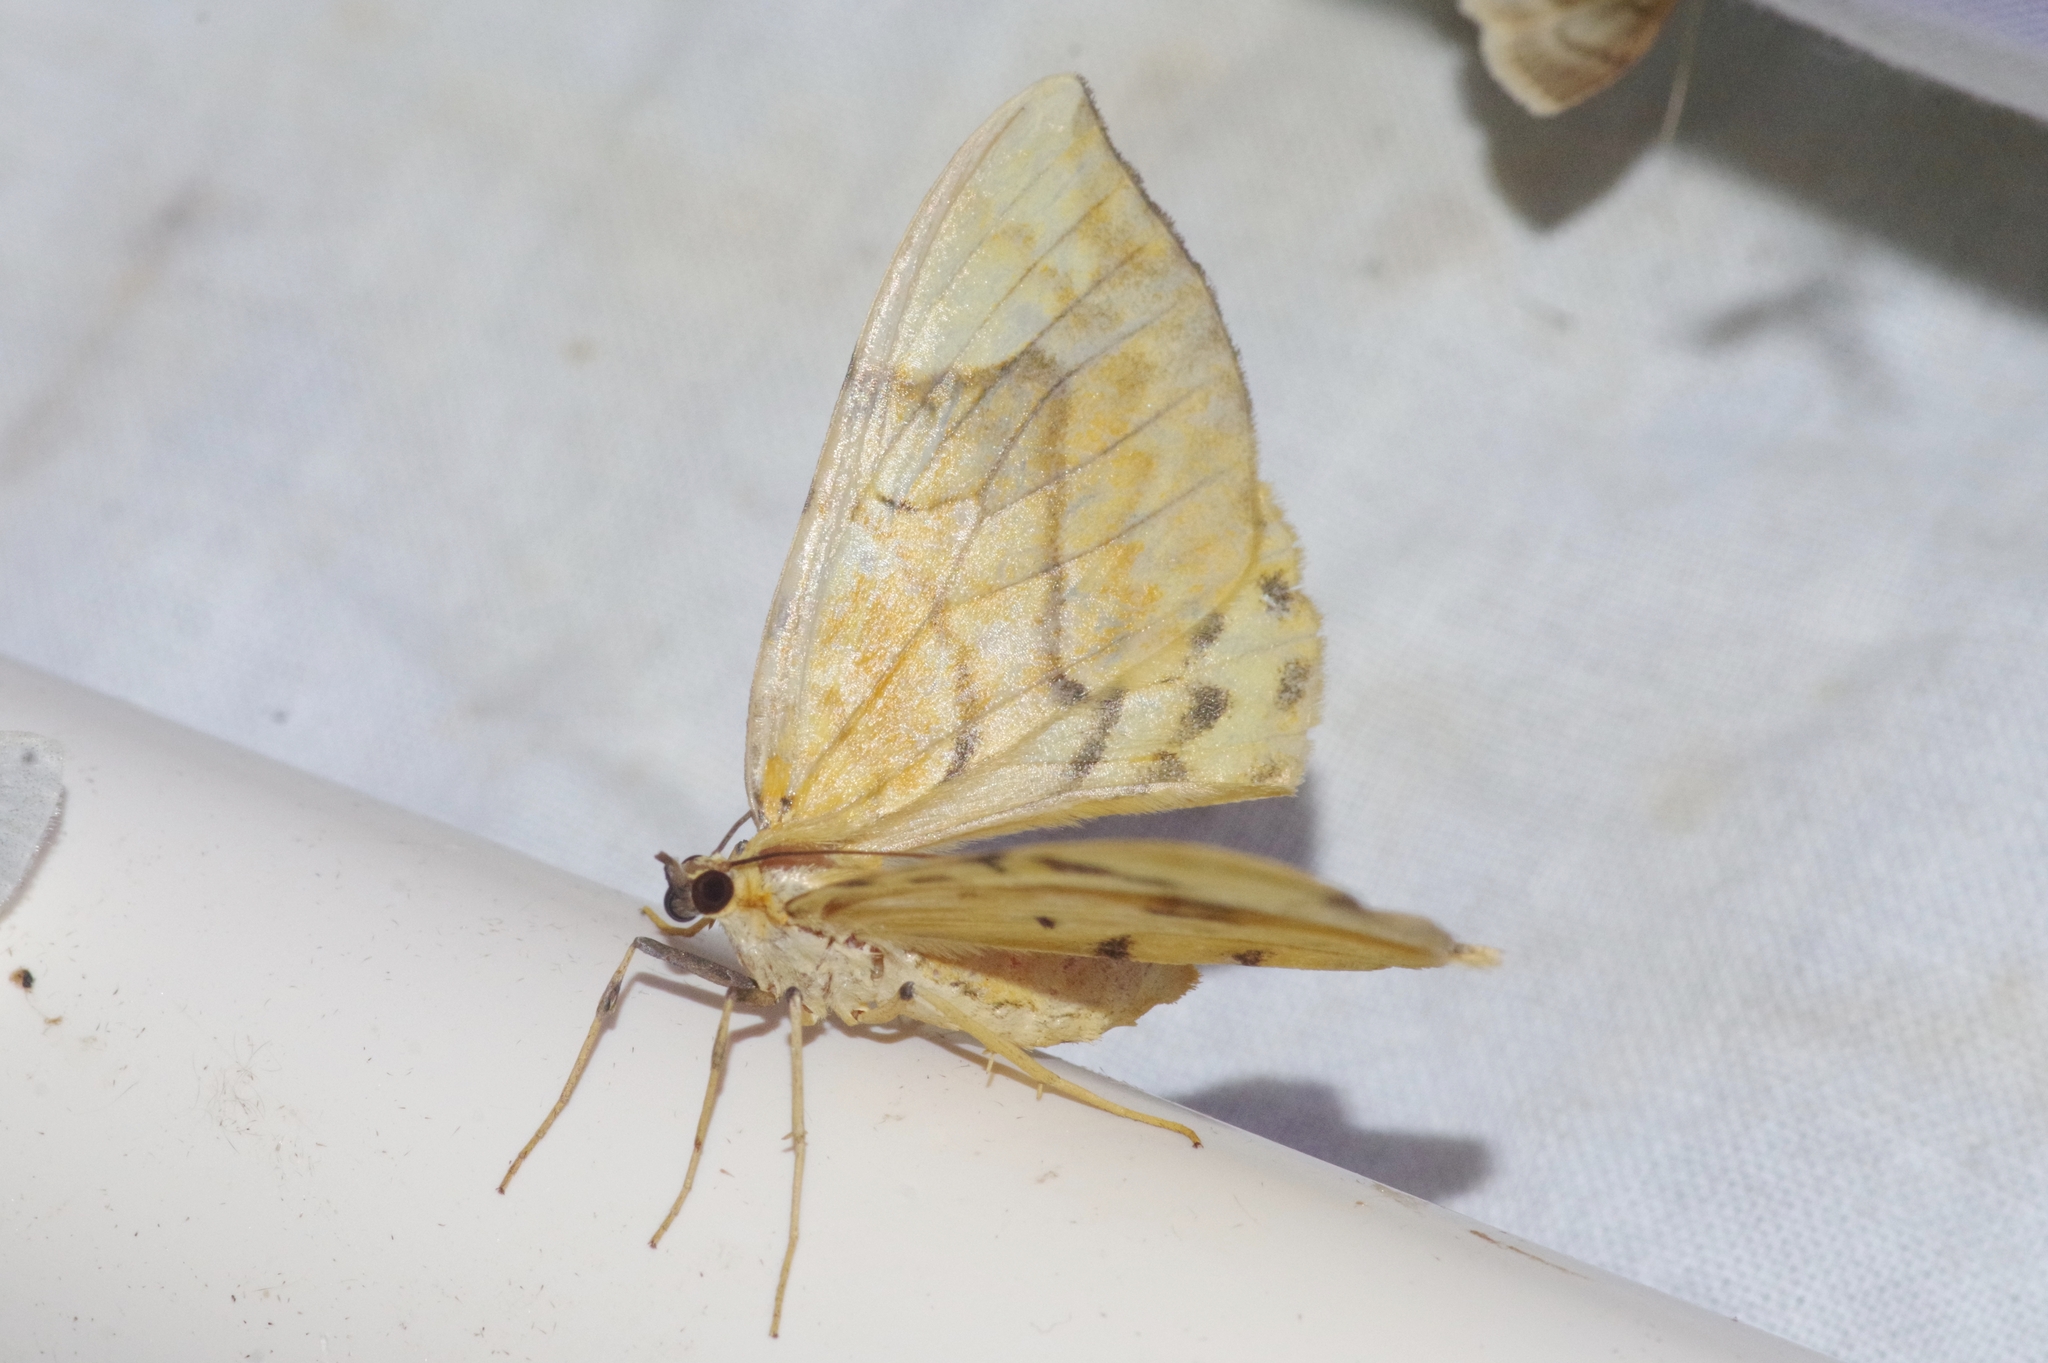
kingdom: Animalia
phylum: Arthropoda
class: Insecta
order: Lepidoptera
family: Geometridae
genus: Gandaritis
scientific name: Gandaritis fixseni
